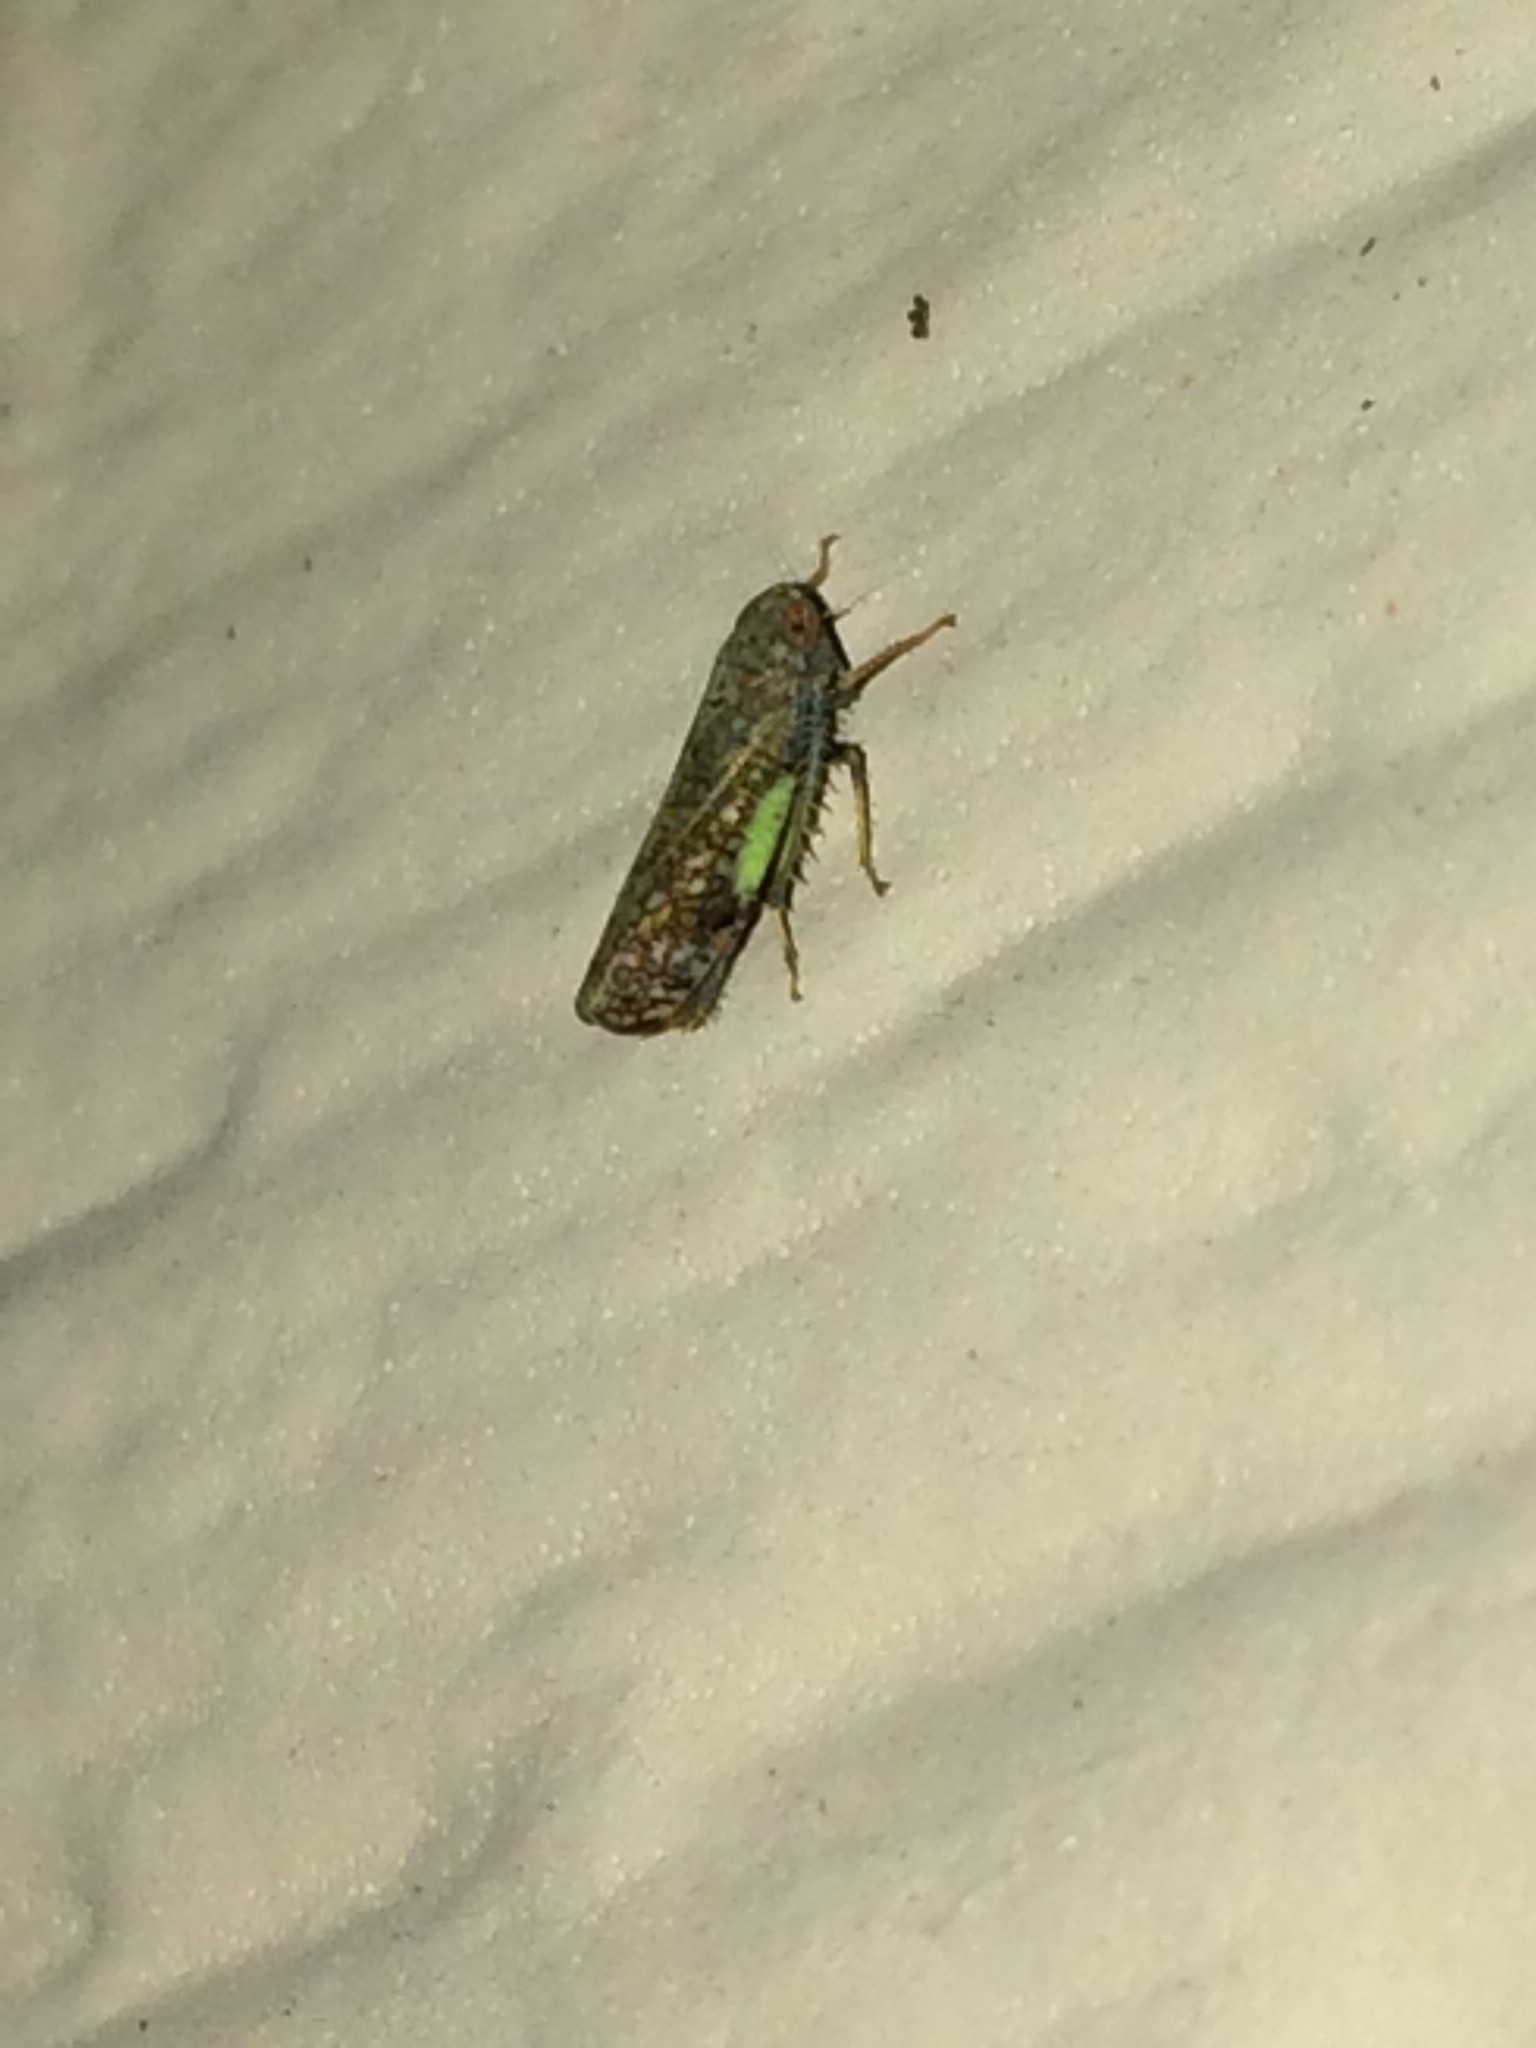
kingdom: Animalia
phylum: Arthropoda
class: Insecta
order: Hemiptera
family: Cicadellidae
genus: Orientus
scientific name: Orientus ishidae
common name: Japanese leafhopper
